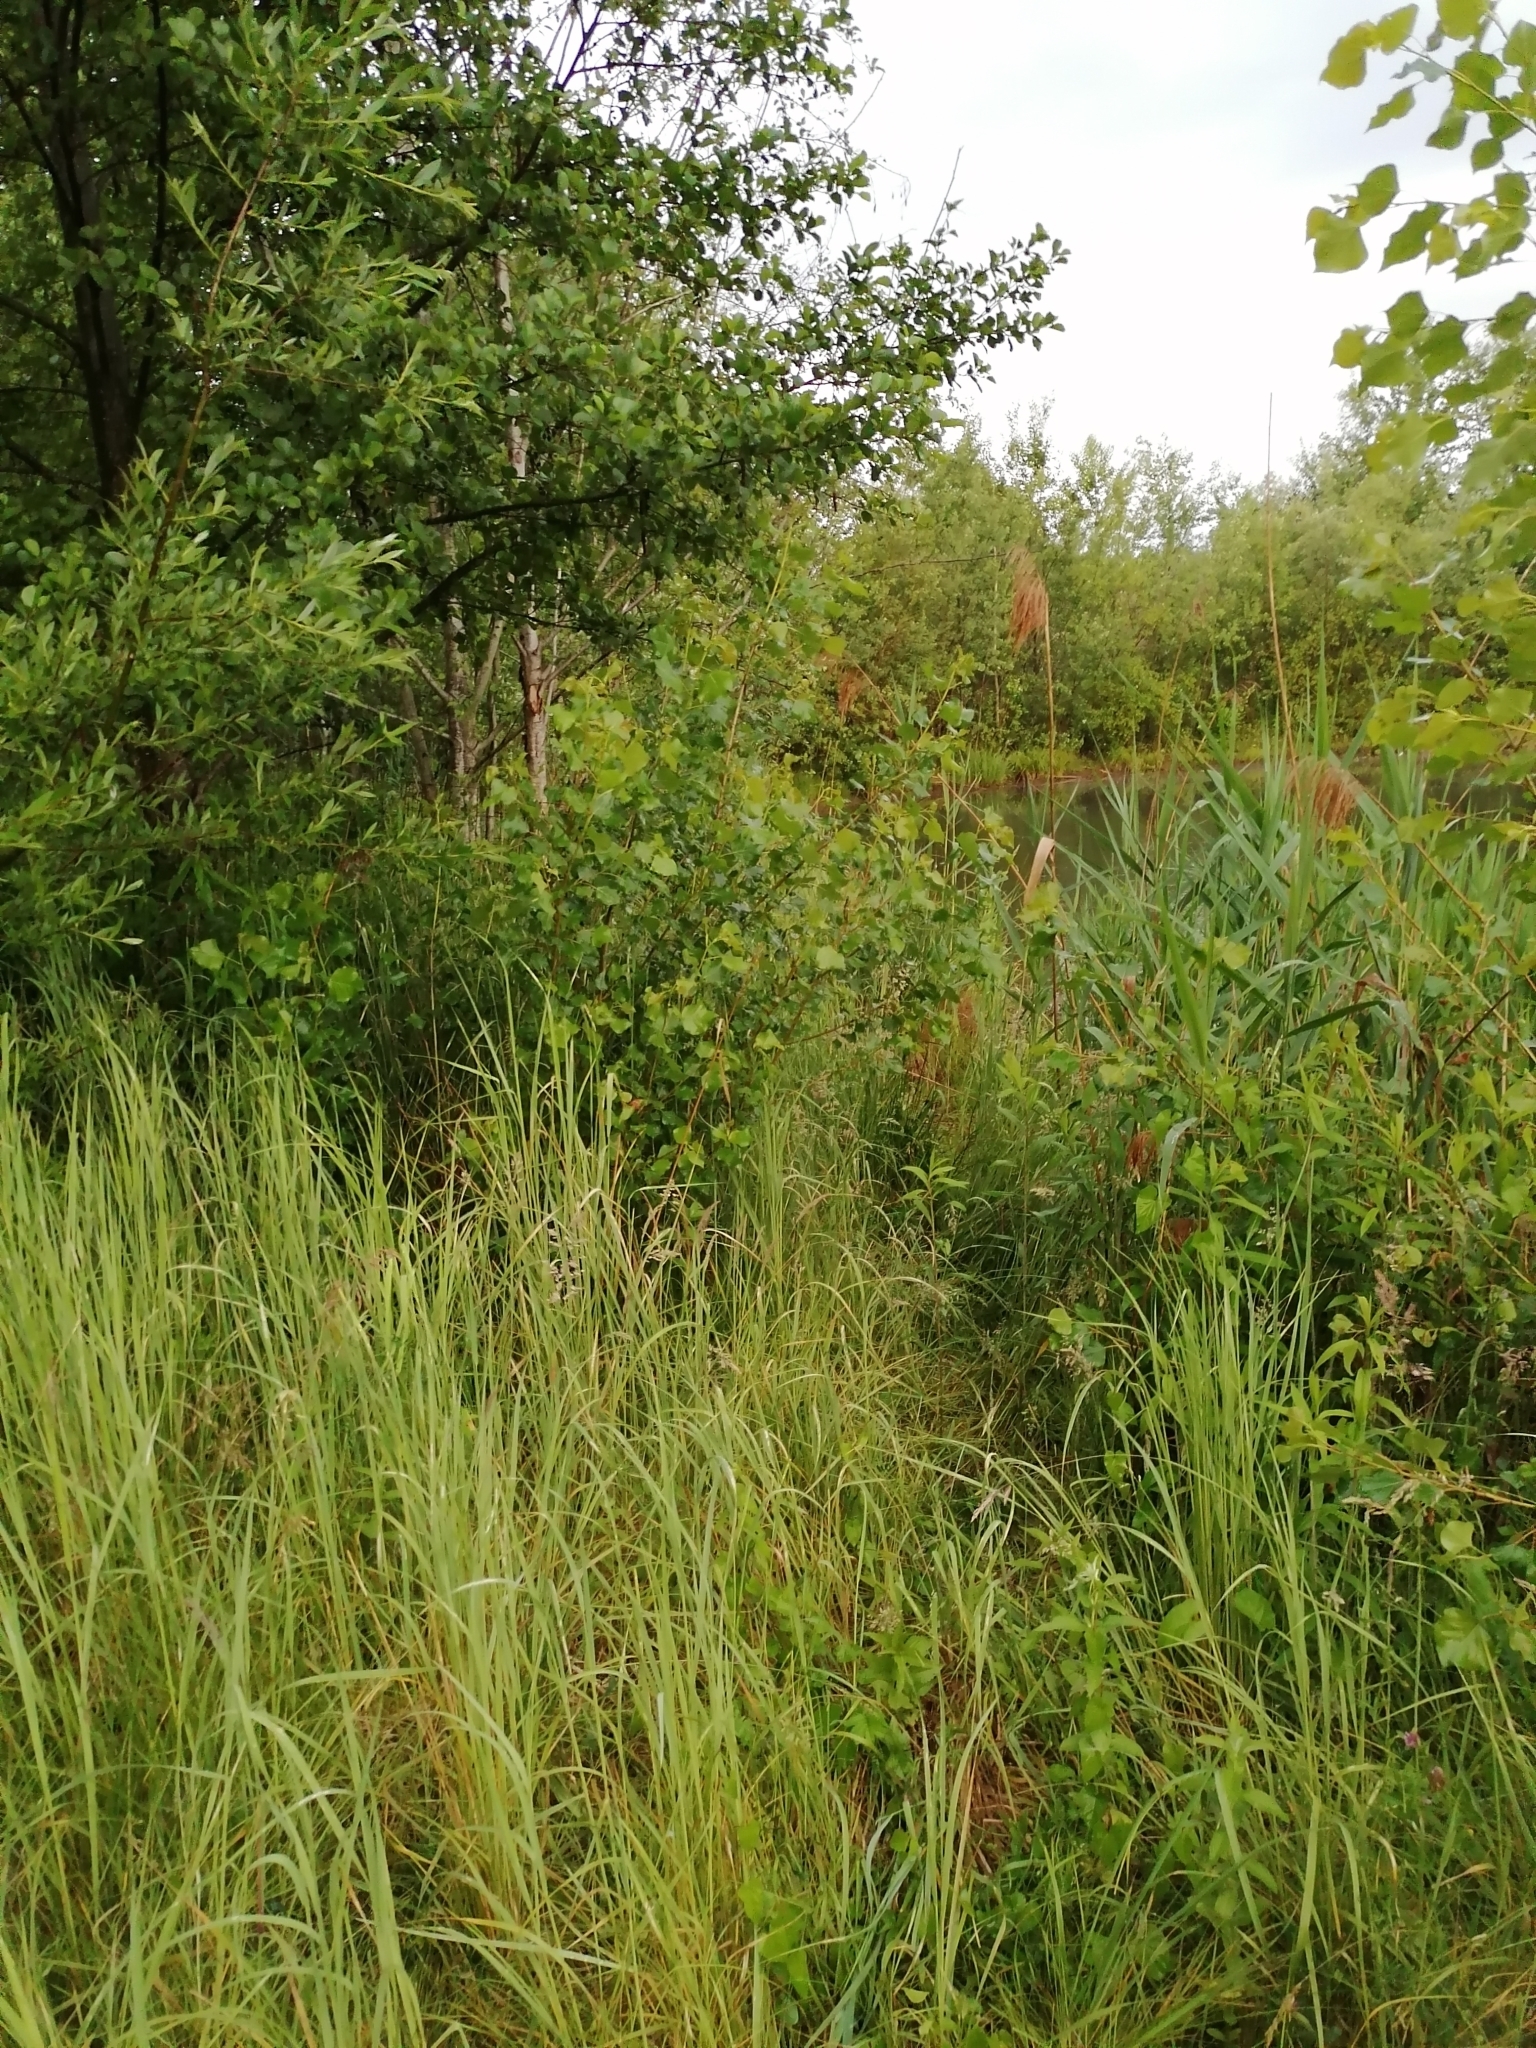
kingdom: Plantae
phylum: Tracheophyta
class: Liliopsida
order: Poales
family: Cyperaceae
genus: Carex
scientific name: Carex hirta
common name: Hairy sedge
